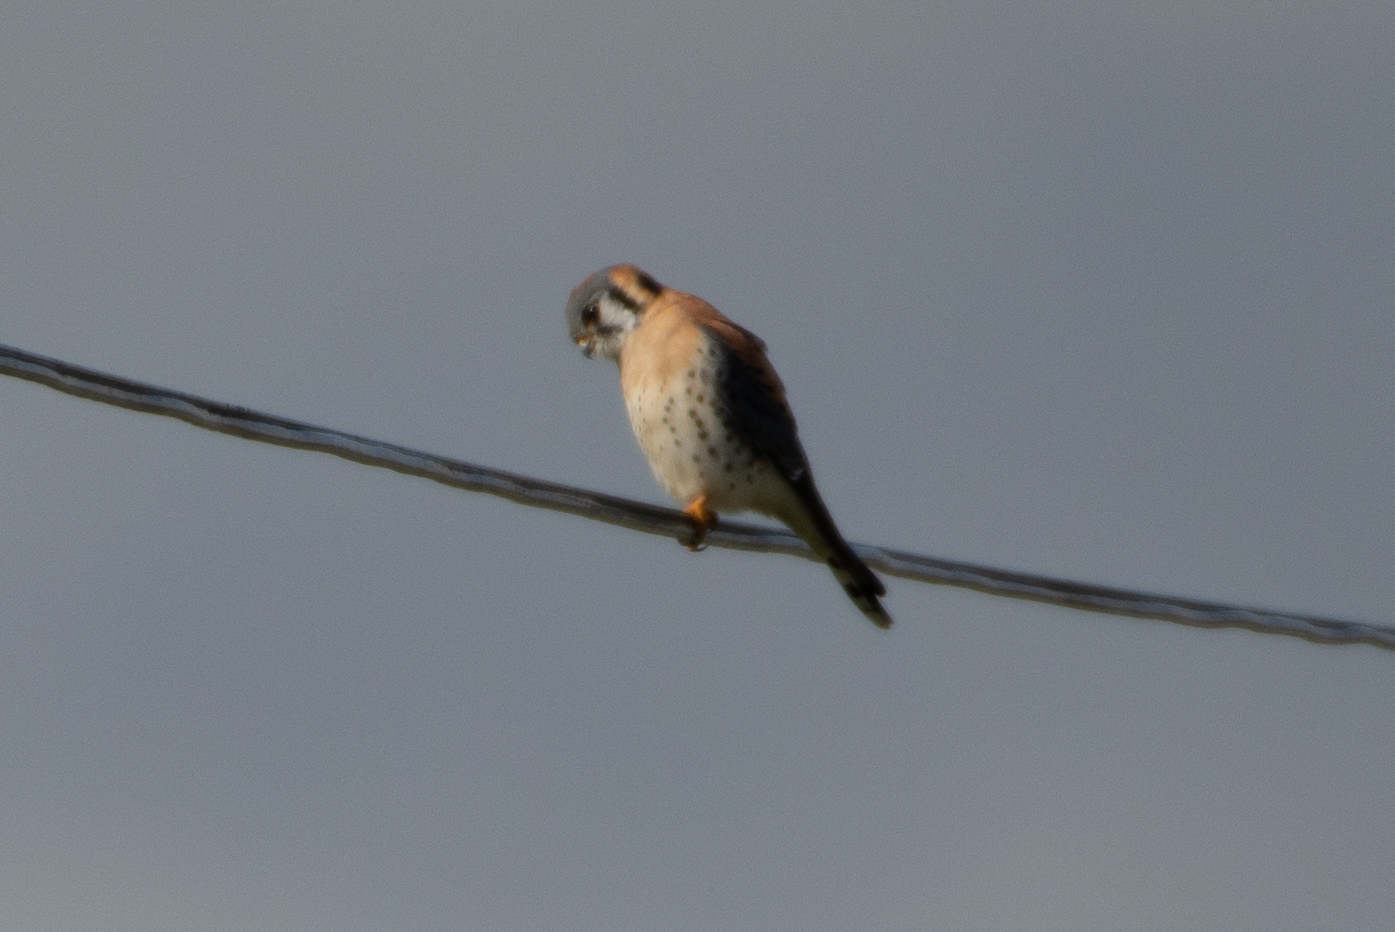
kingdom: Animalia
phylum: Chordata
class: Aves
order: Falconiformes
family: Falconidae
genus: Falco
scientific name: Falco sparverius
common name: American kestrel
